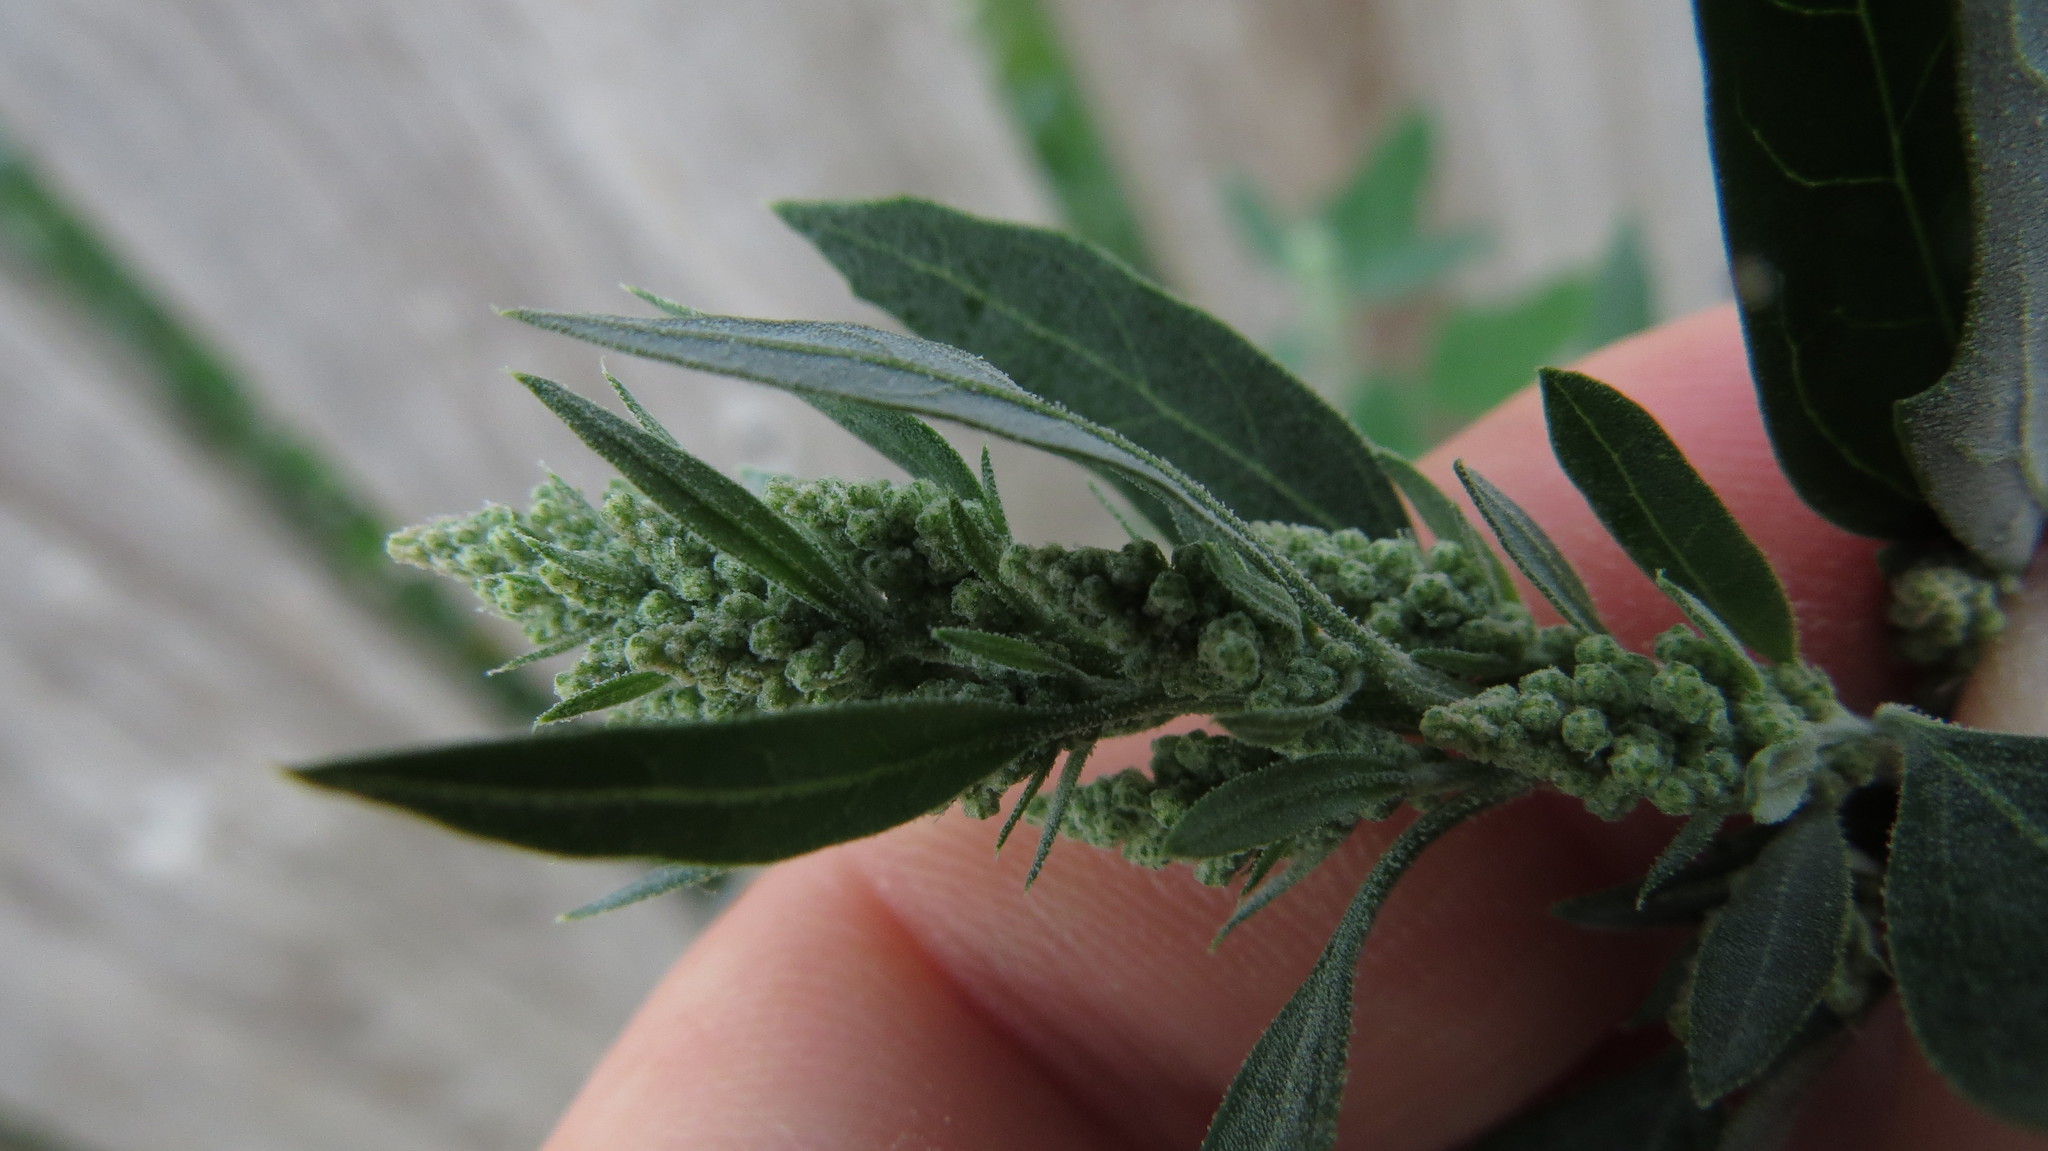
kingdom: Plantae
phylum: Tracheophyta
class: Magnoliopsida
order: Caryophyllales
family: Amaranthaceae
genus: Chenopodium
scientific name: Chenopodium album
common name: Fat-hen
